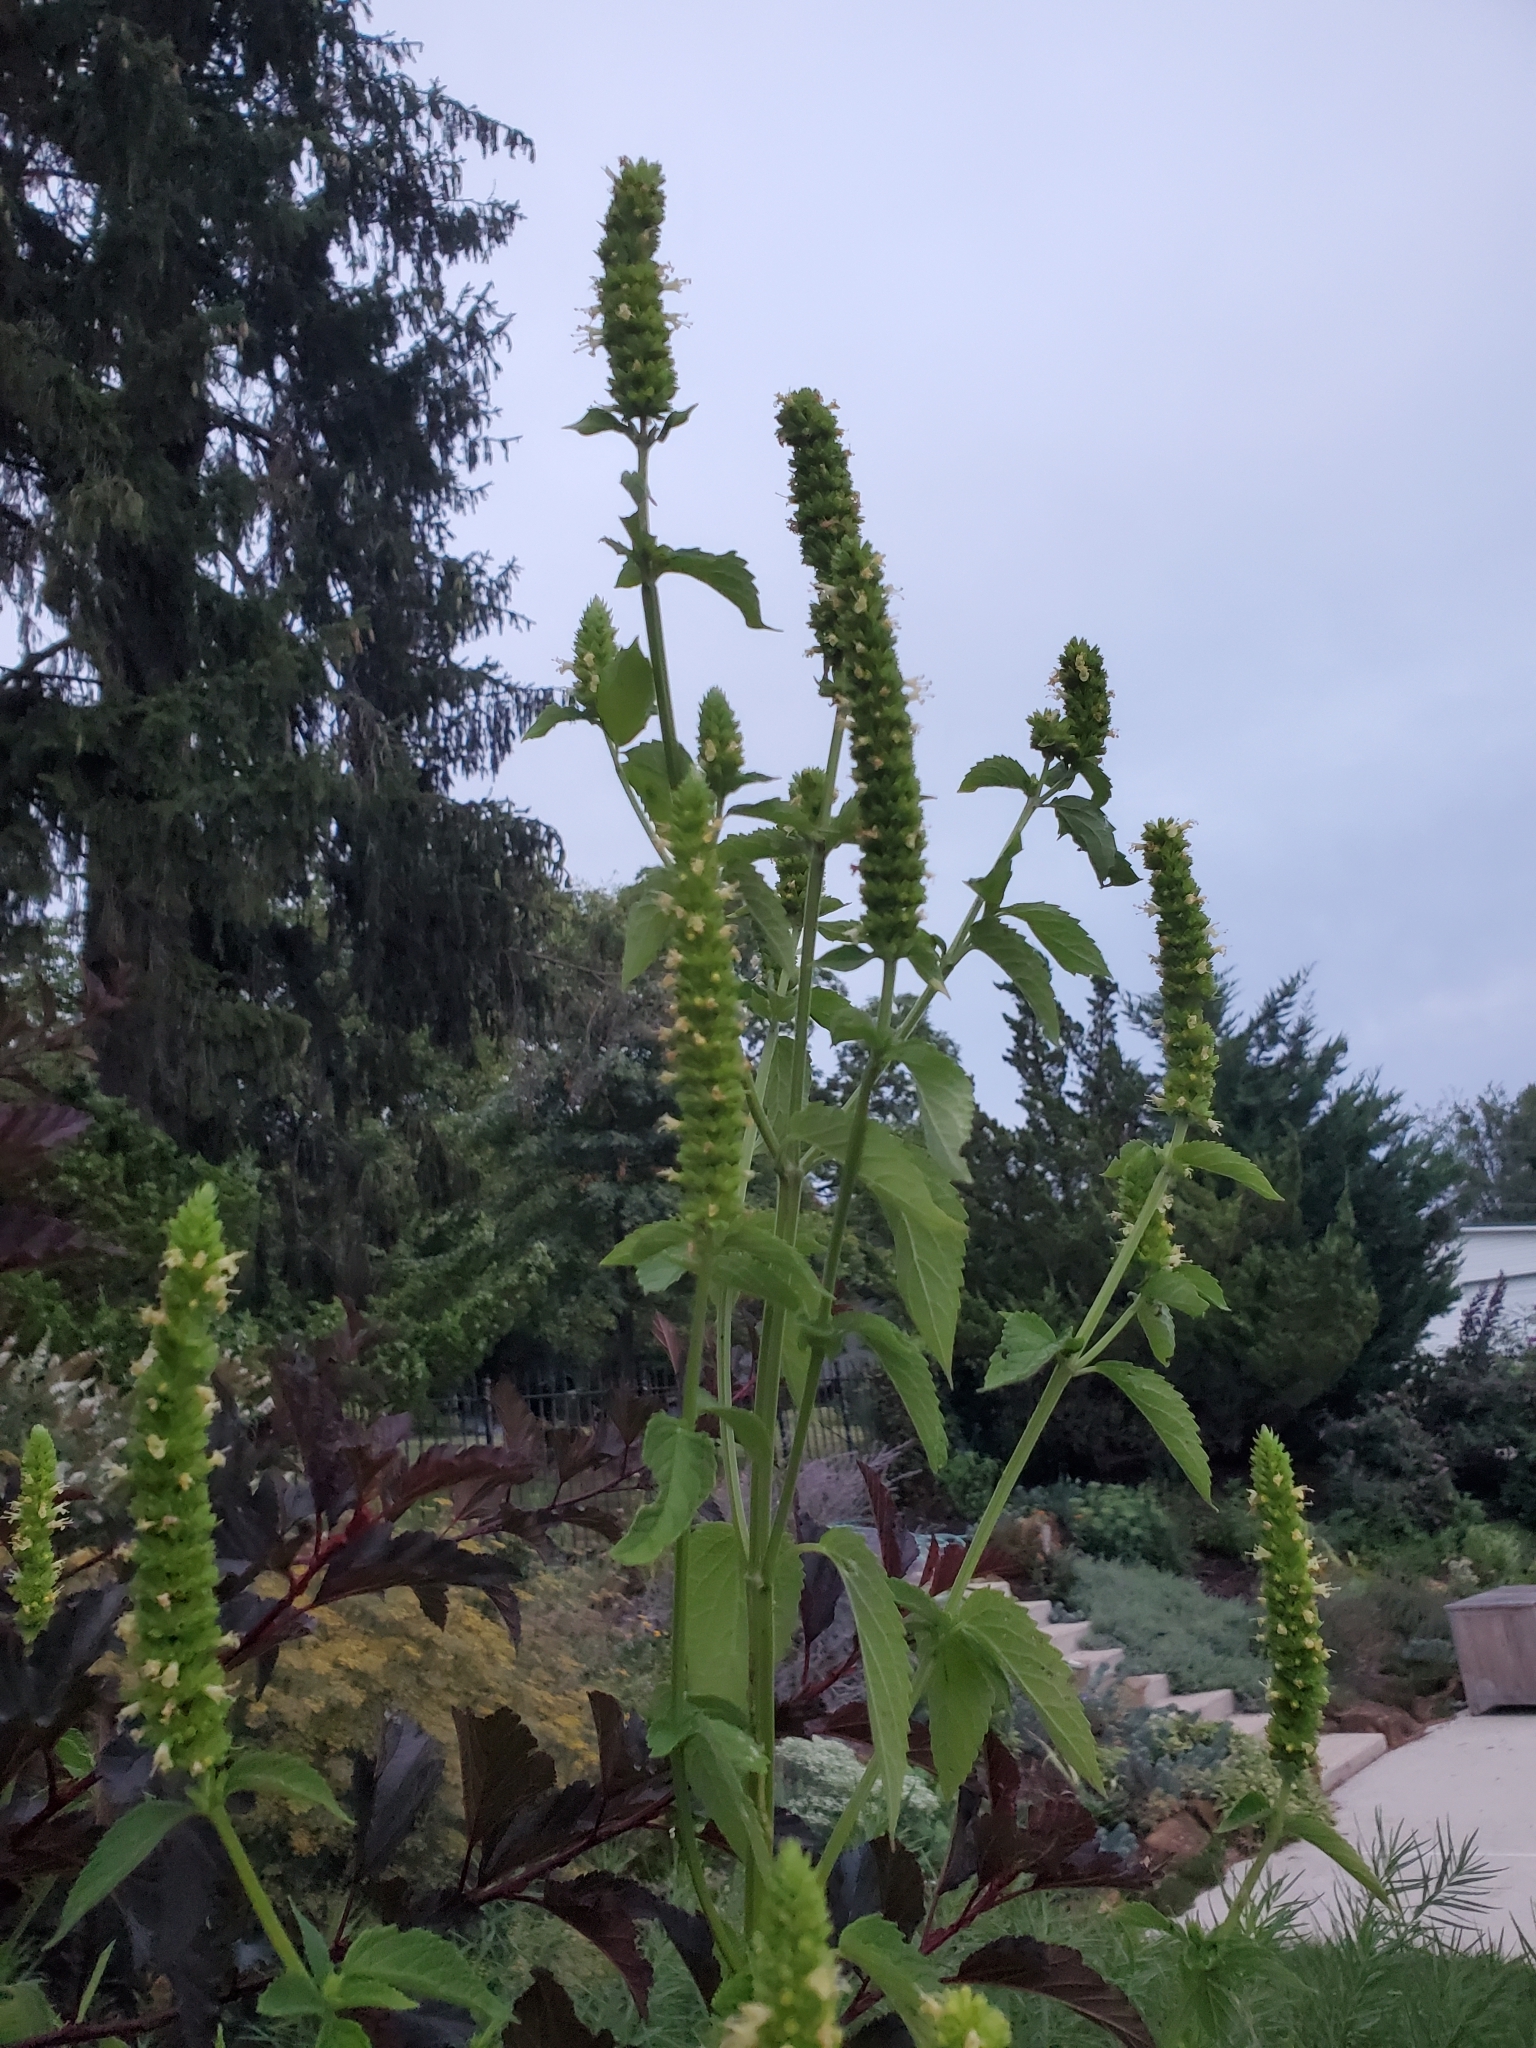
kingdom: Plantae
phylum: Tracheophyta
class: Magnoliopsida
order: Lamiales
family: Lamiaceae
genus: Agastache
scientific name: Agastache nepetoides
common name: Catnip giant hyssop
